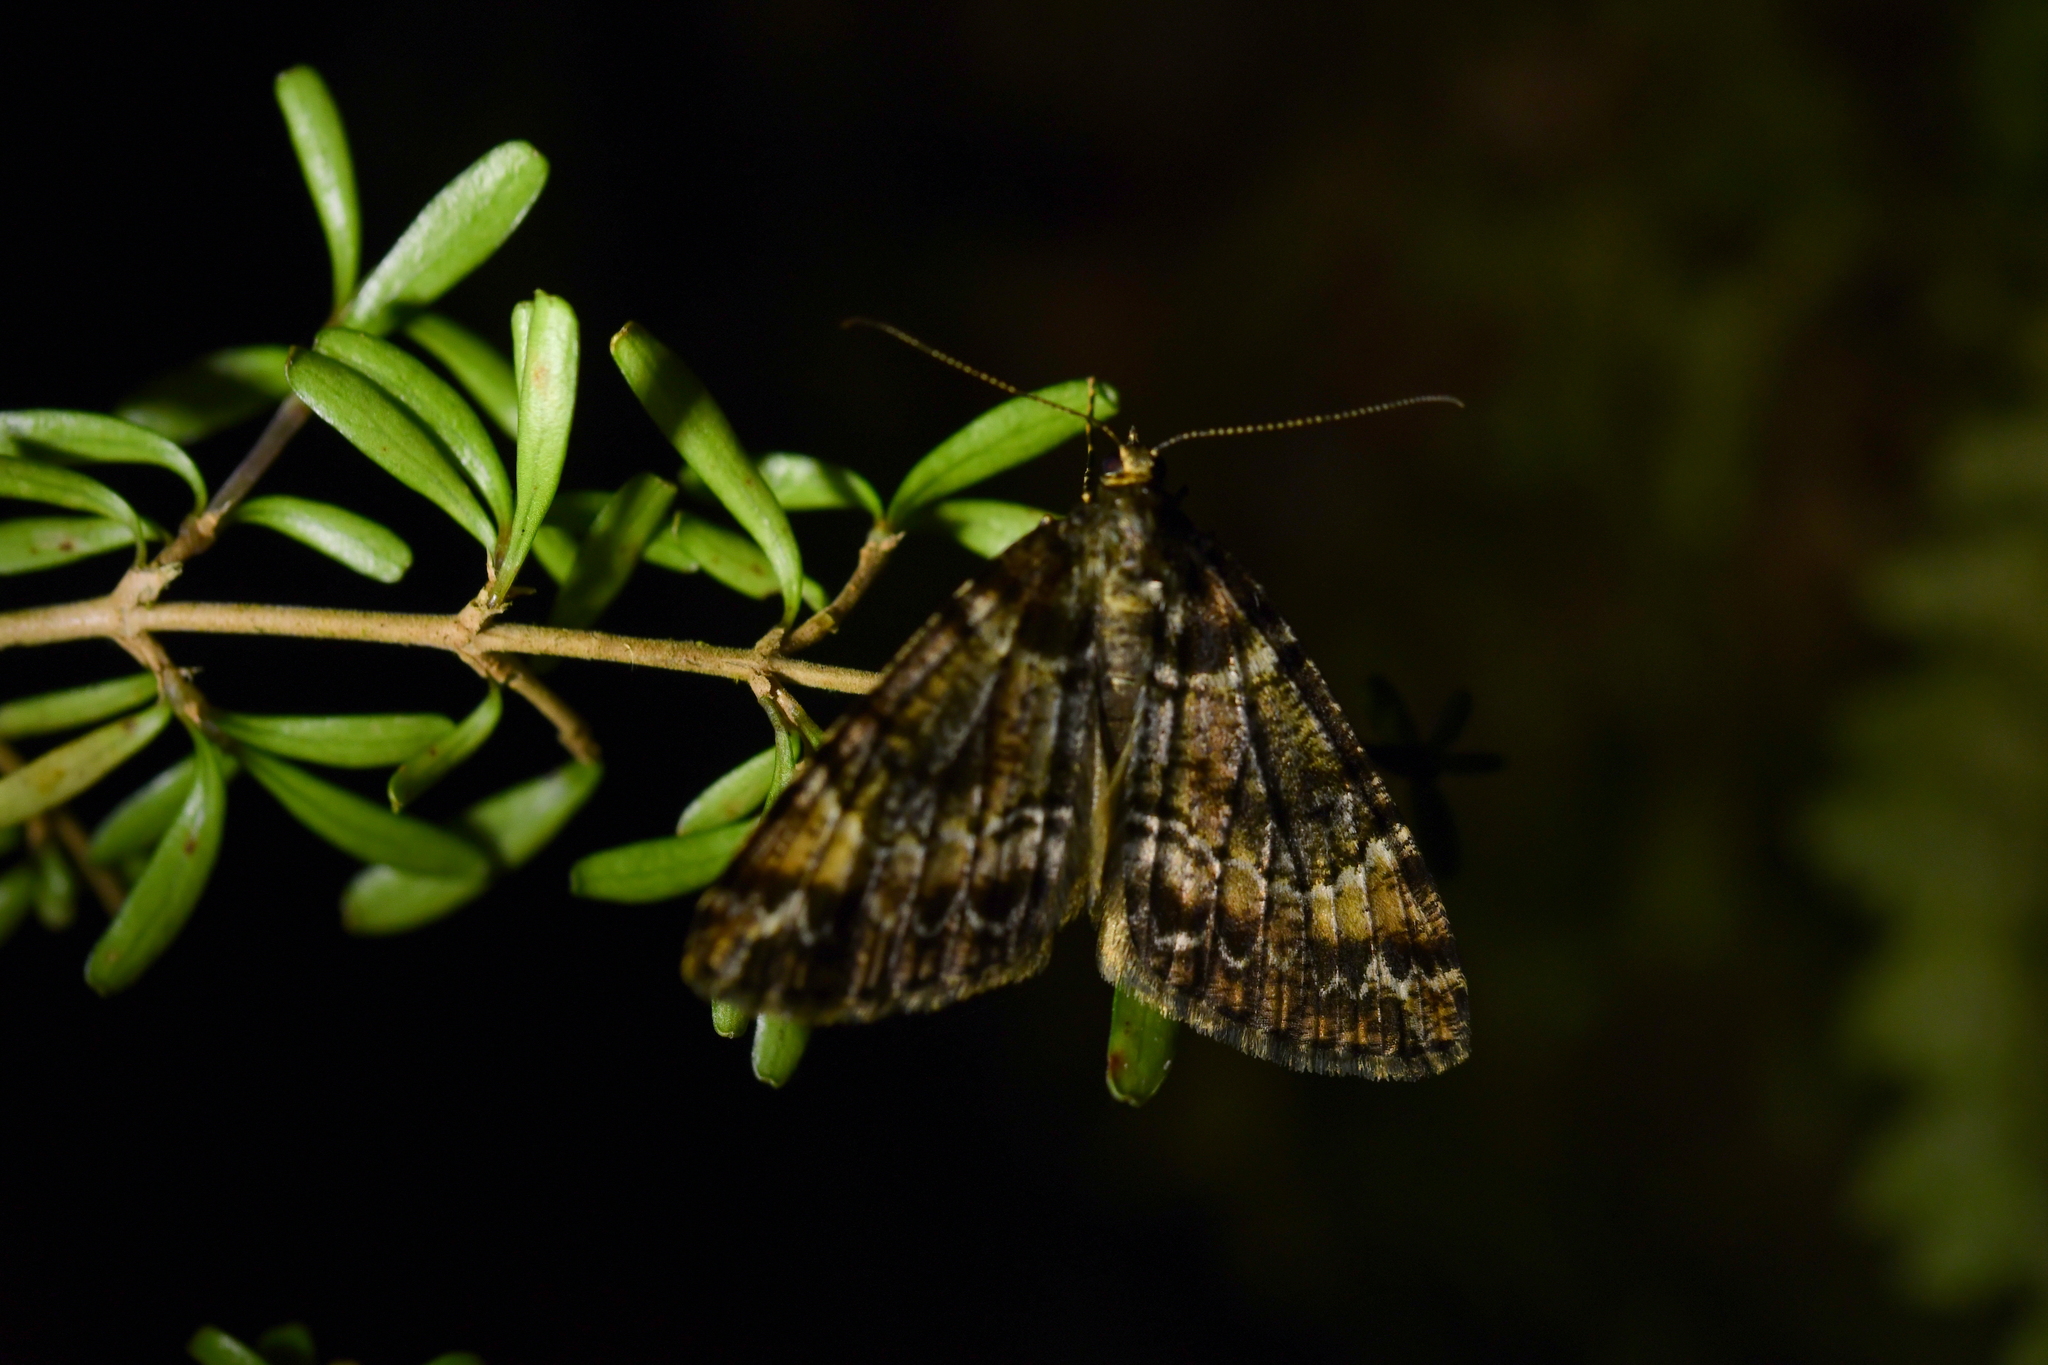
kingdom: Animalia
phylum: Arthropoda
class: Insecta
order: Lepidoptera
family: Geometridae
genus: Pseudocoremia
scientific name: Pseudocoremia productata
